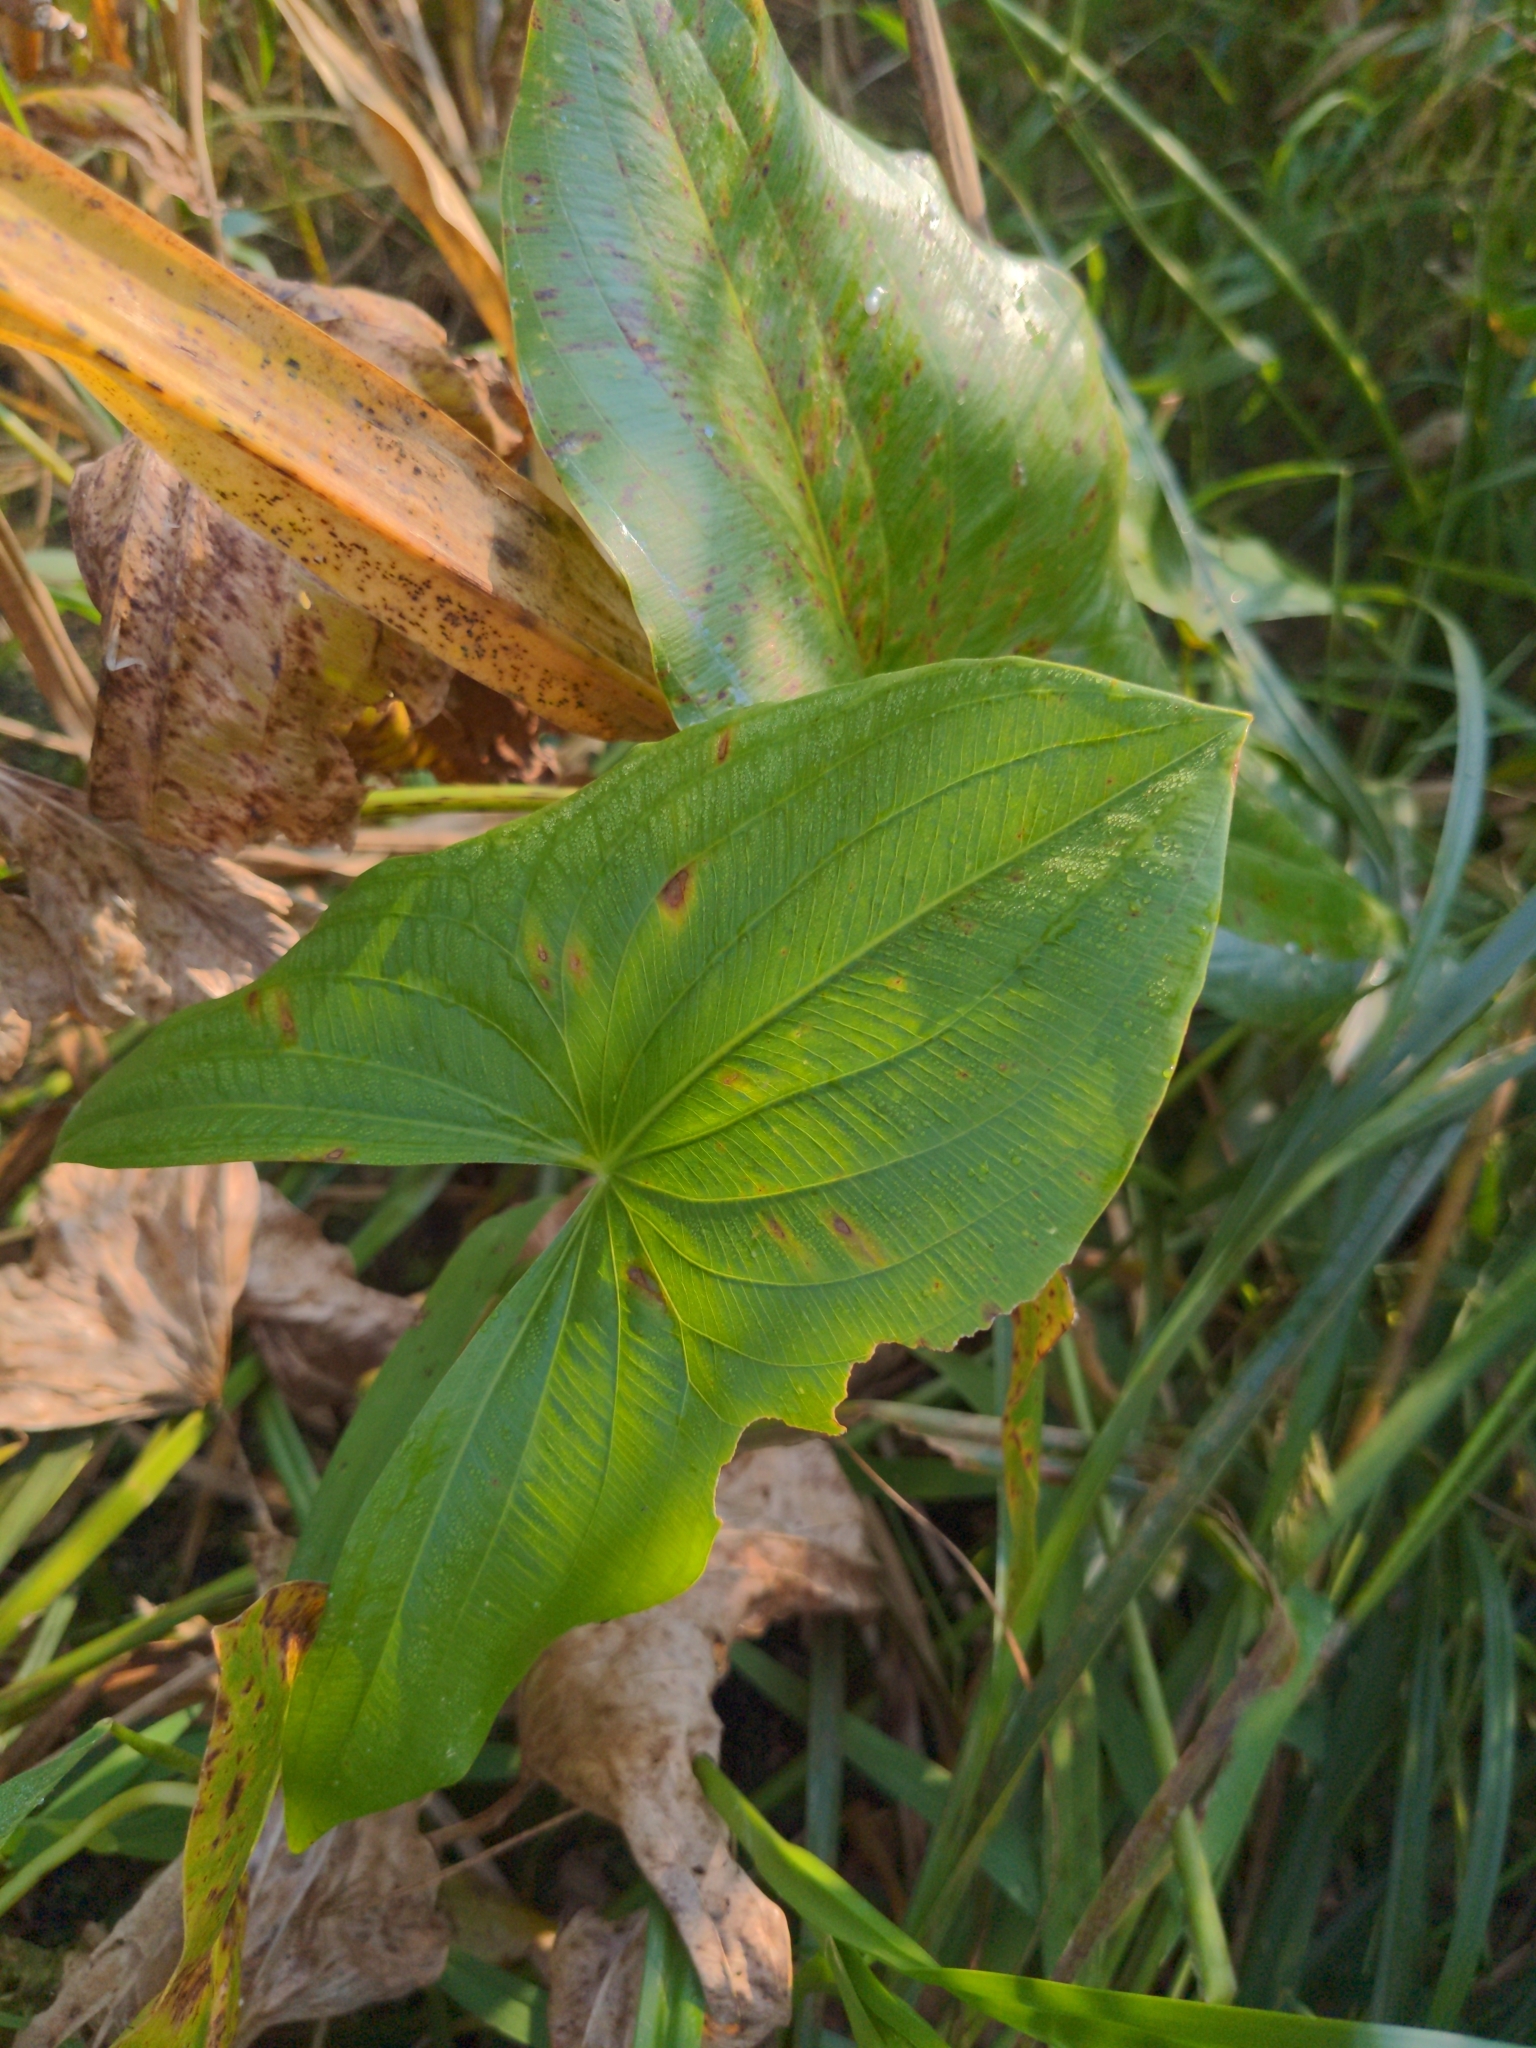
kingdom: Plantae
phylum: Tracheophyta
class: Liliopsida
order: Alismatales
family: Alismataceae
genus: Sagittaria
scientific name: Sagittaria latifolia
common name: Duck-potato
